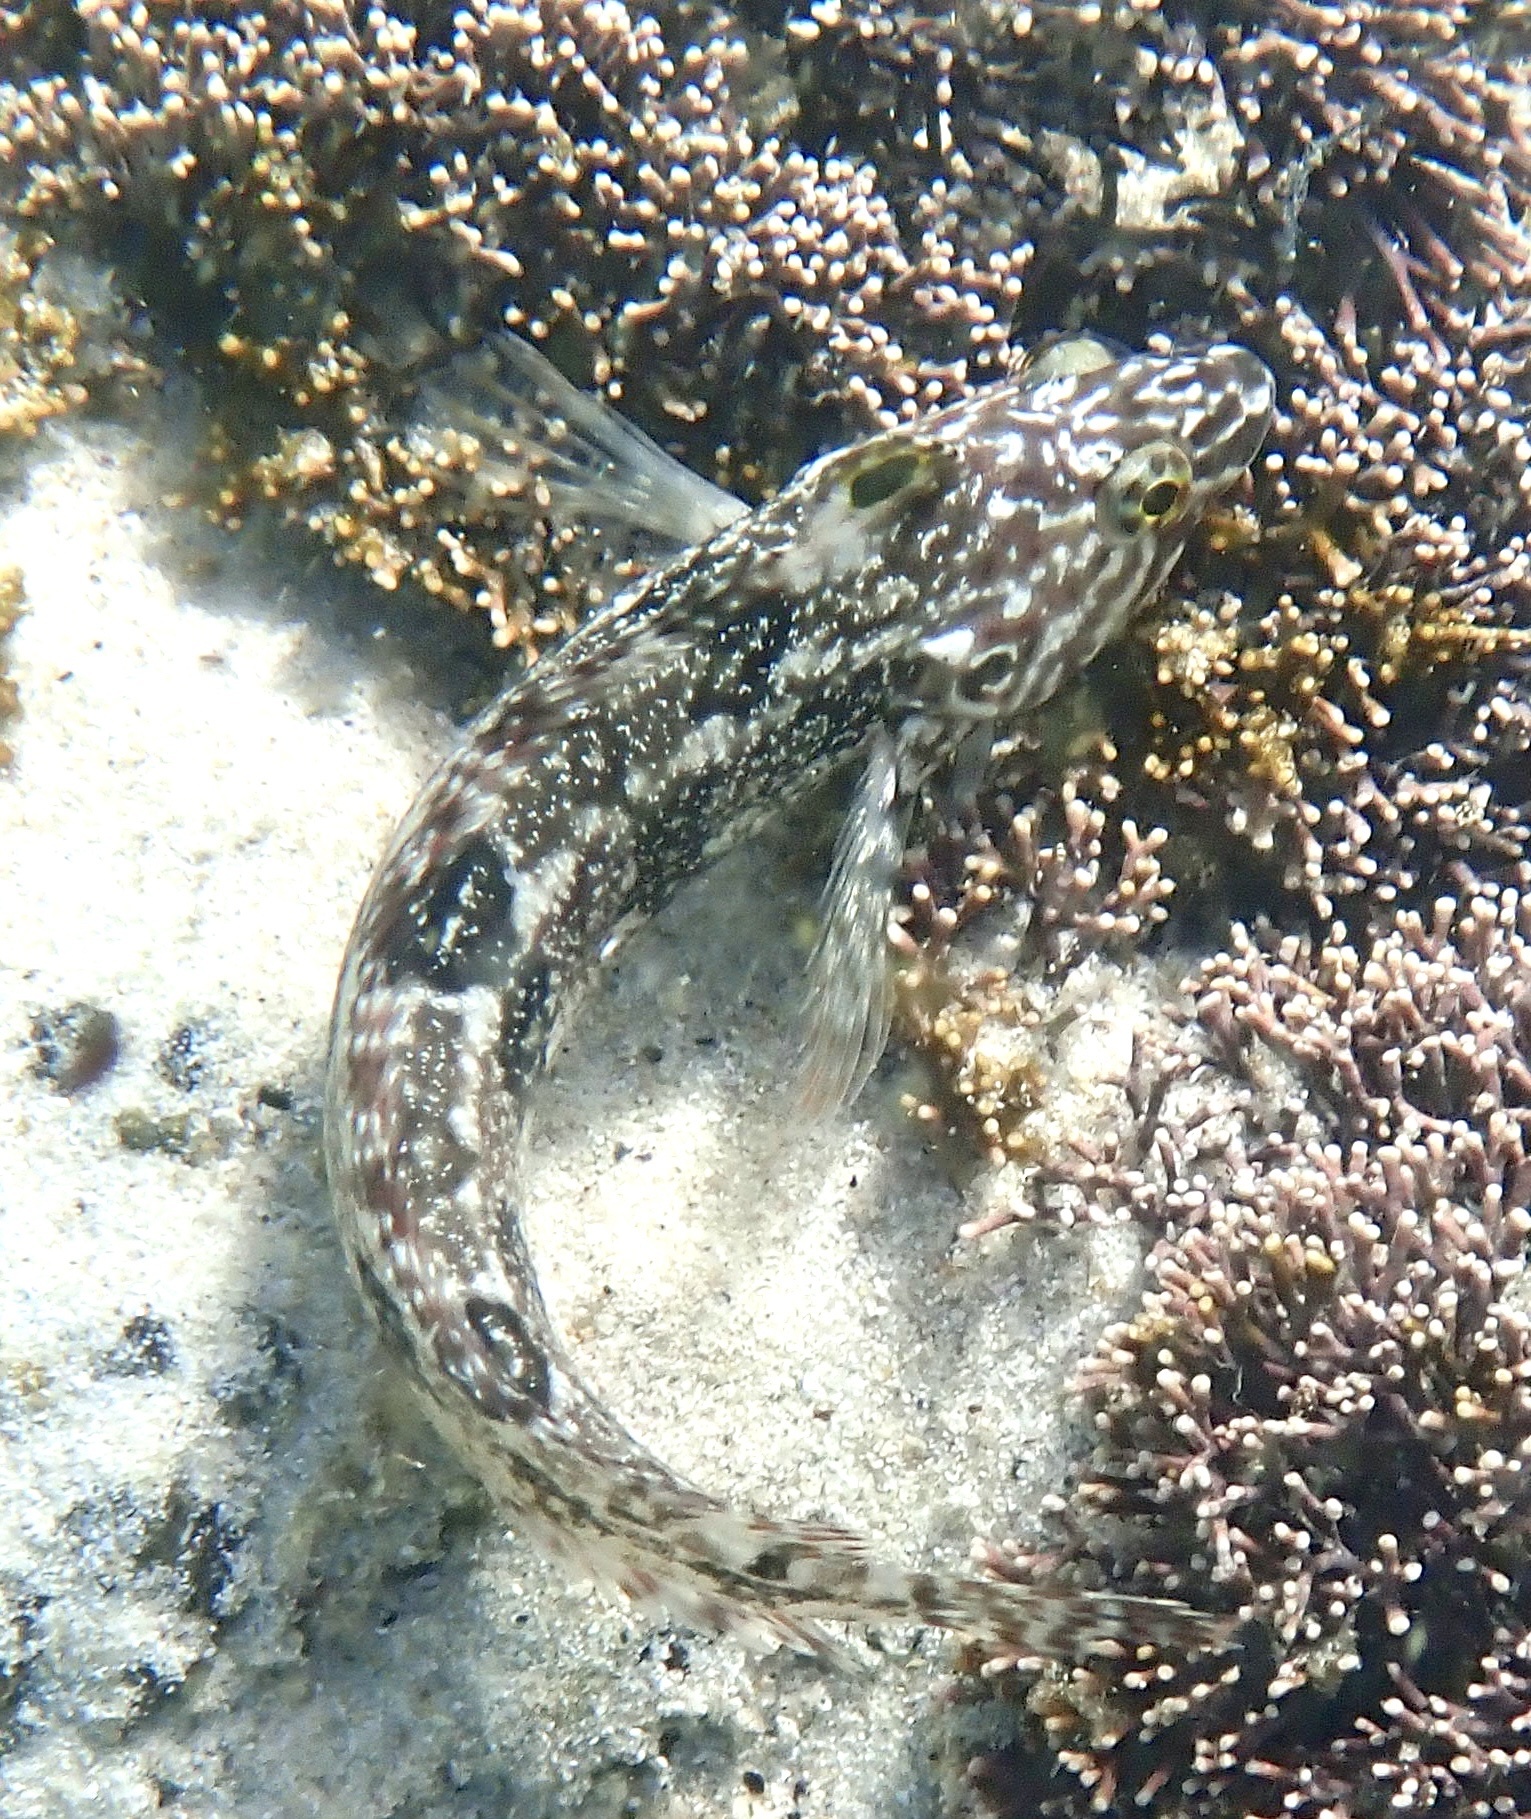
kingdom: Animalia
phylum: Chordata
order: Perciformes
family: Clinidae
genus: Clinus
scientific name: Clinus superciliosus
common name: Super klipfish
